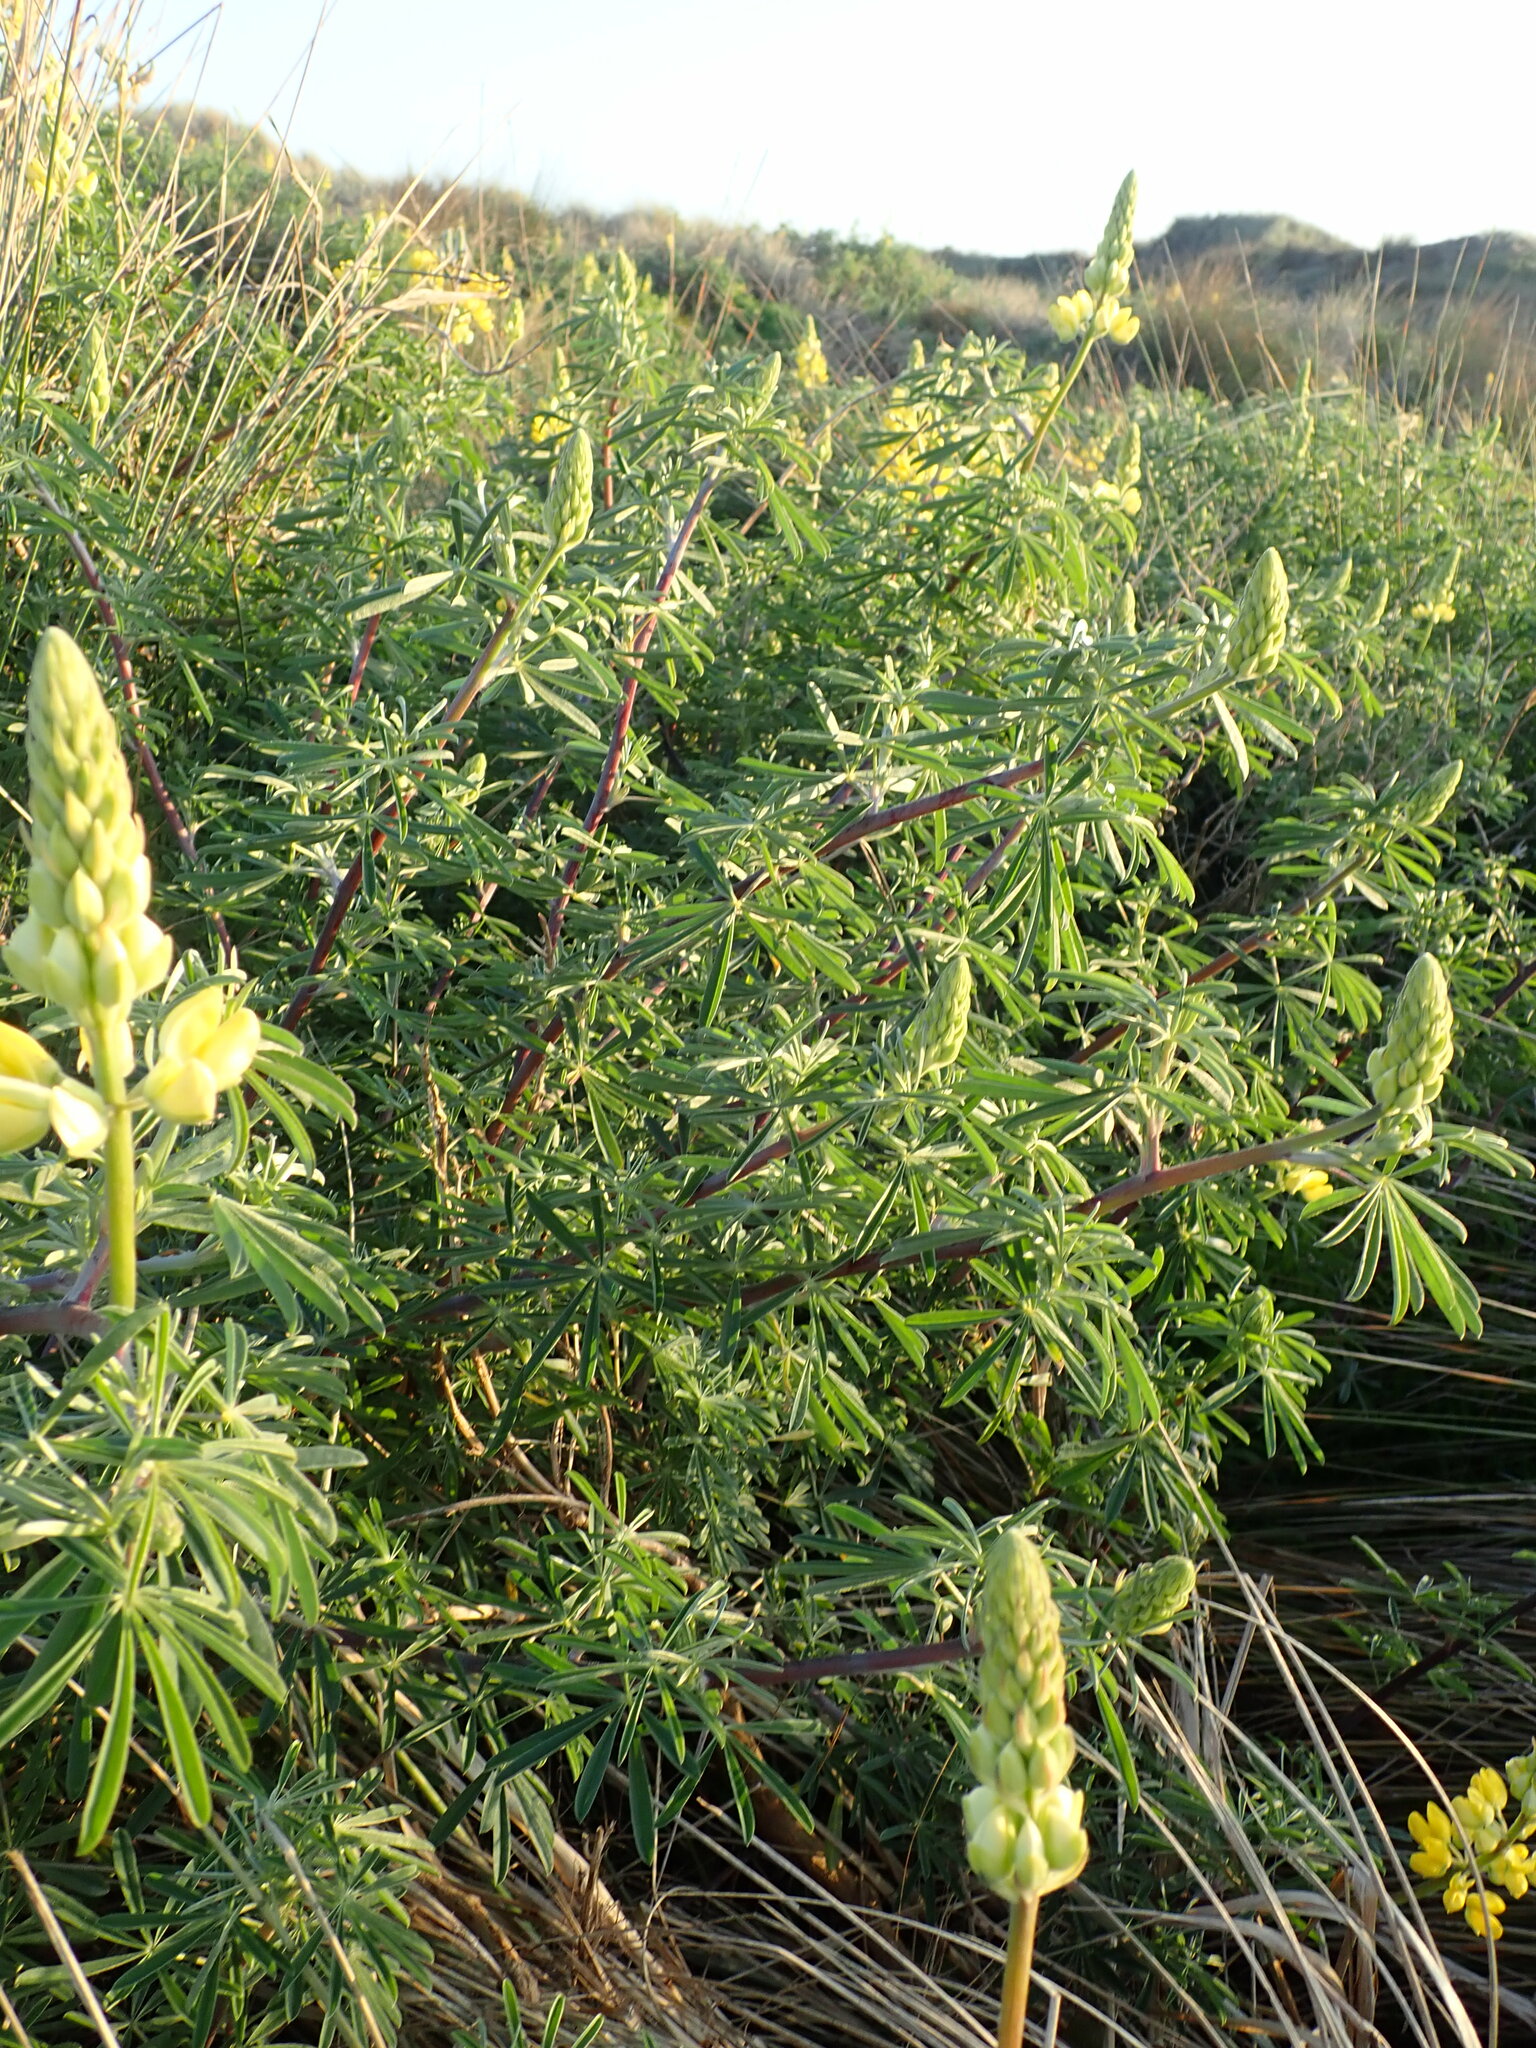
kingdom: Plantae
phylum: Tracheophyta
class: Magnoliopsida
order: Fabales
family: Fabaceae
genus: Lupinus
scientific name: Lupinus arboreus
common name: Yellow bush lupine
